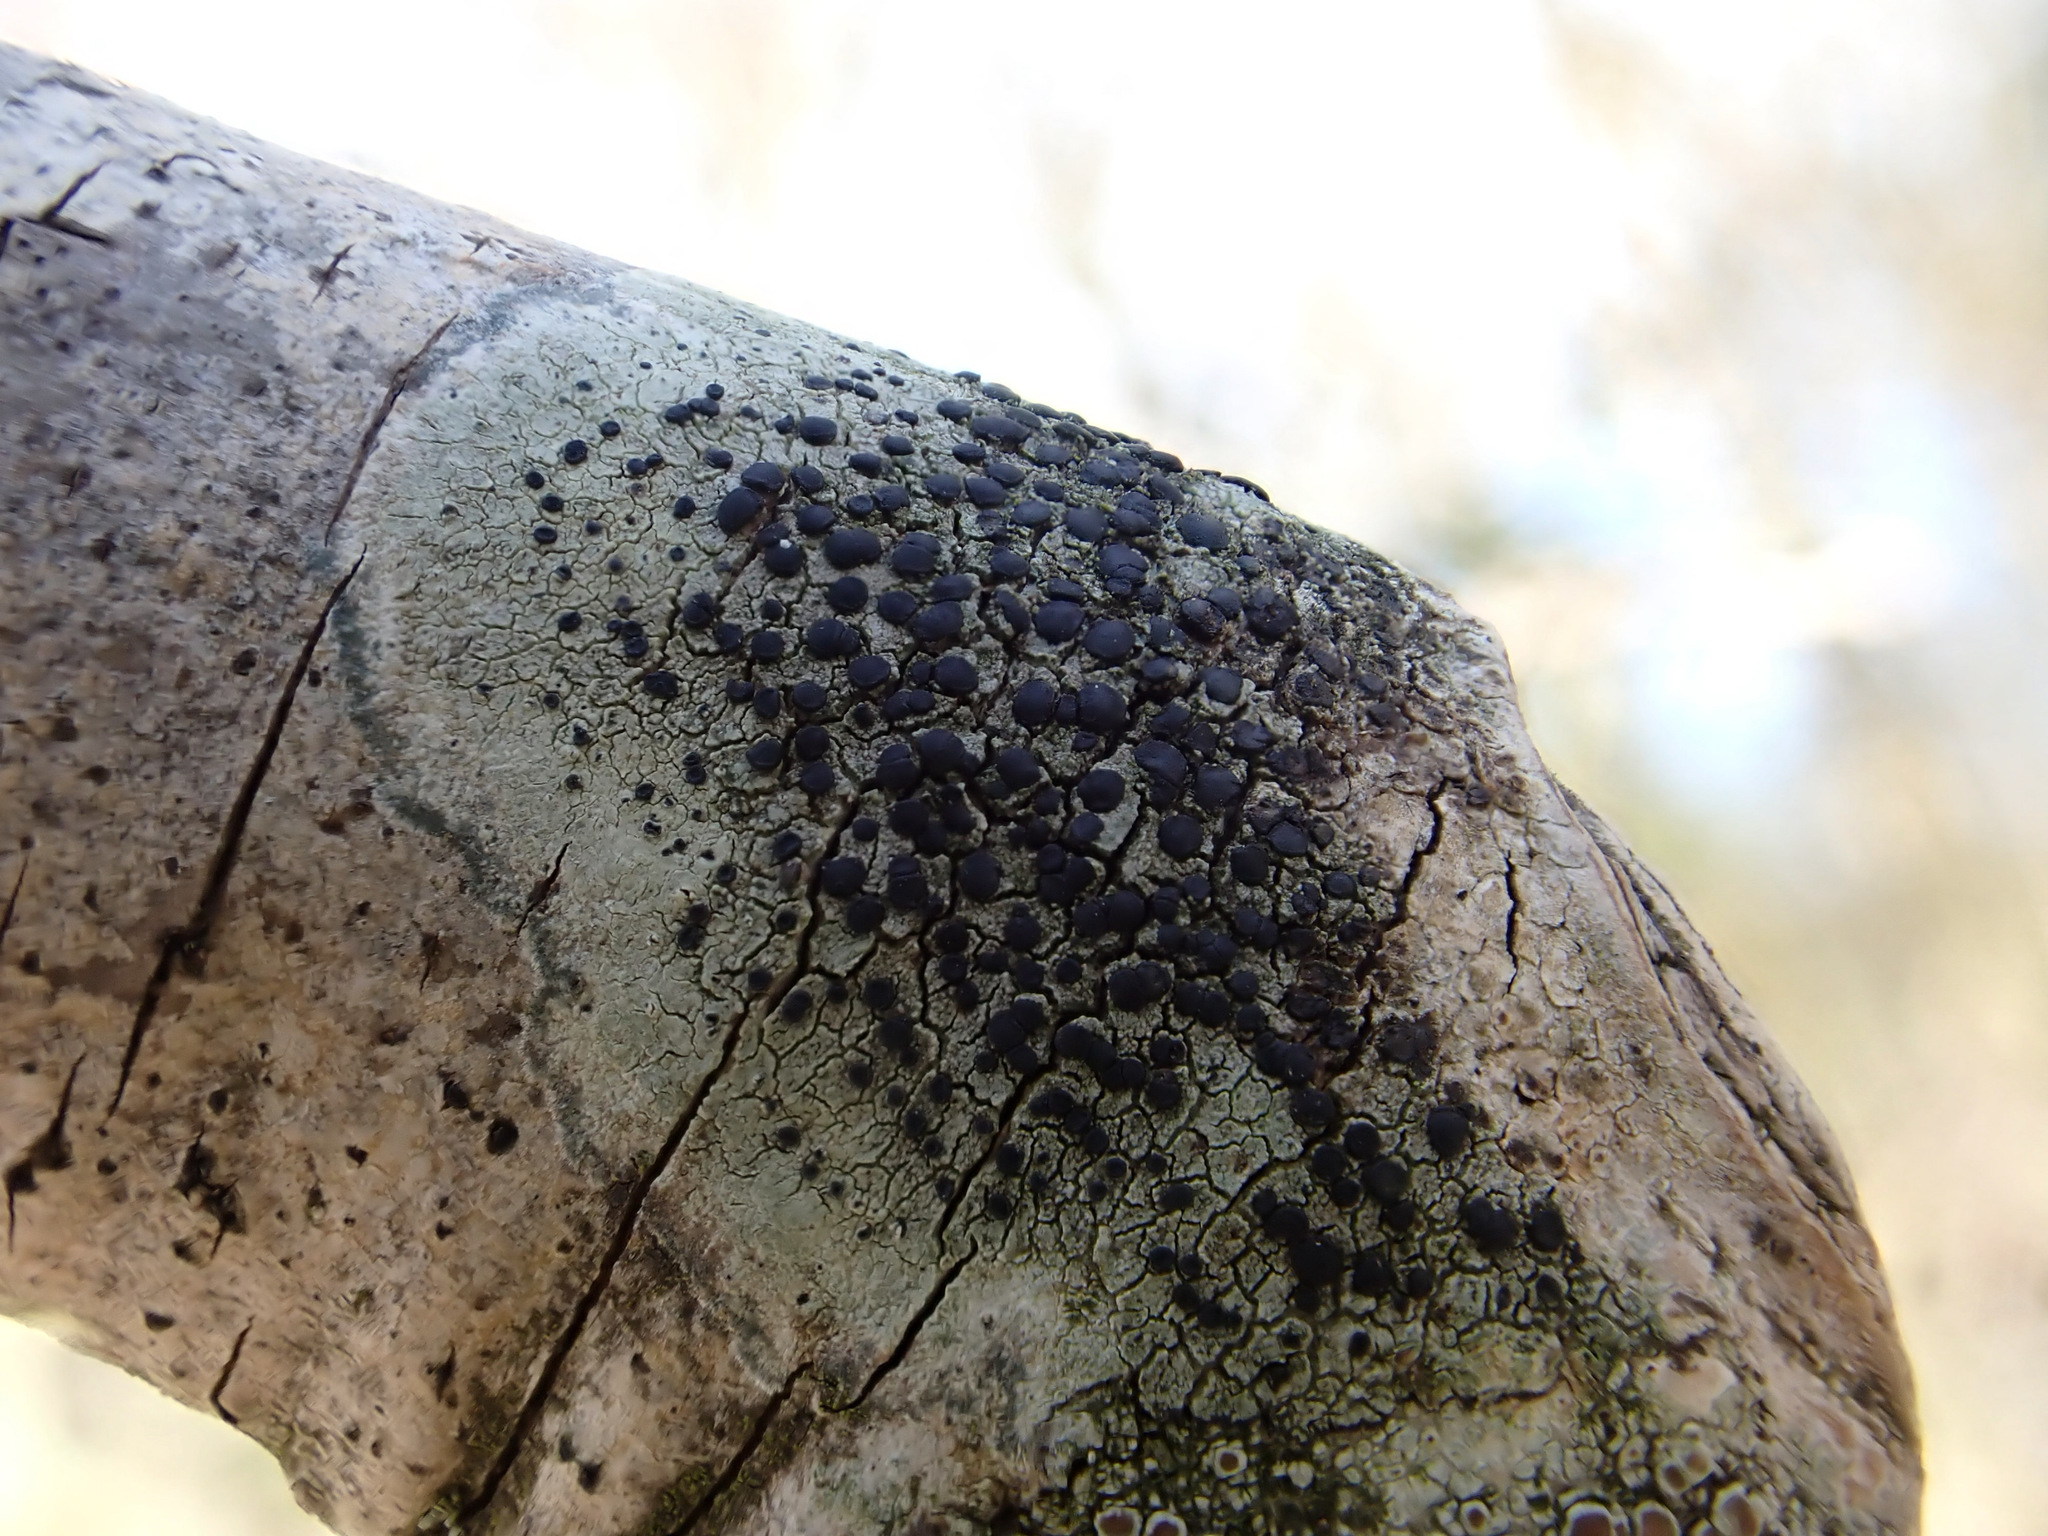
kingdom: Fungi
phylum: Ascomycota
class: Lecanoromycetes
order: Lecanorales
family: Lecanoraceae
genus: Lecidella
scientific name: Lecidella elaeochroma
